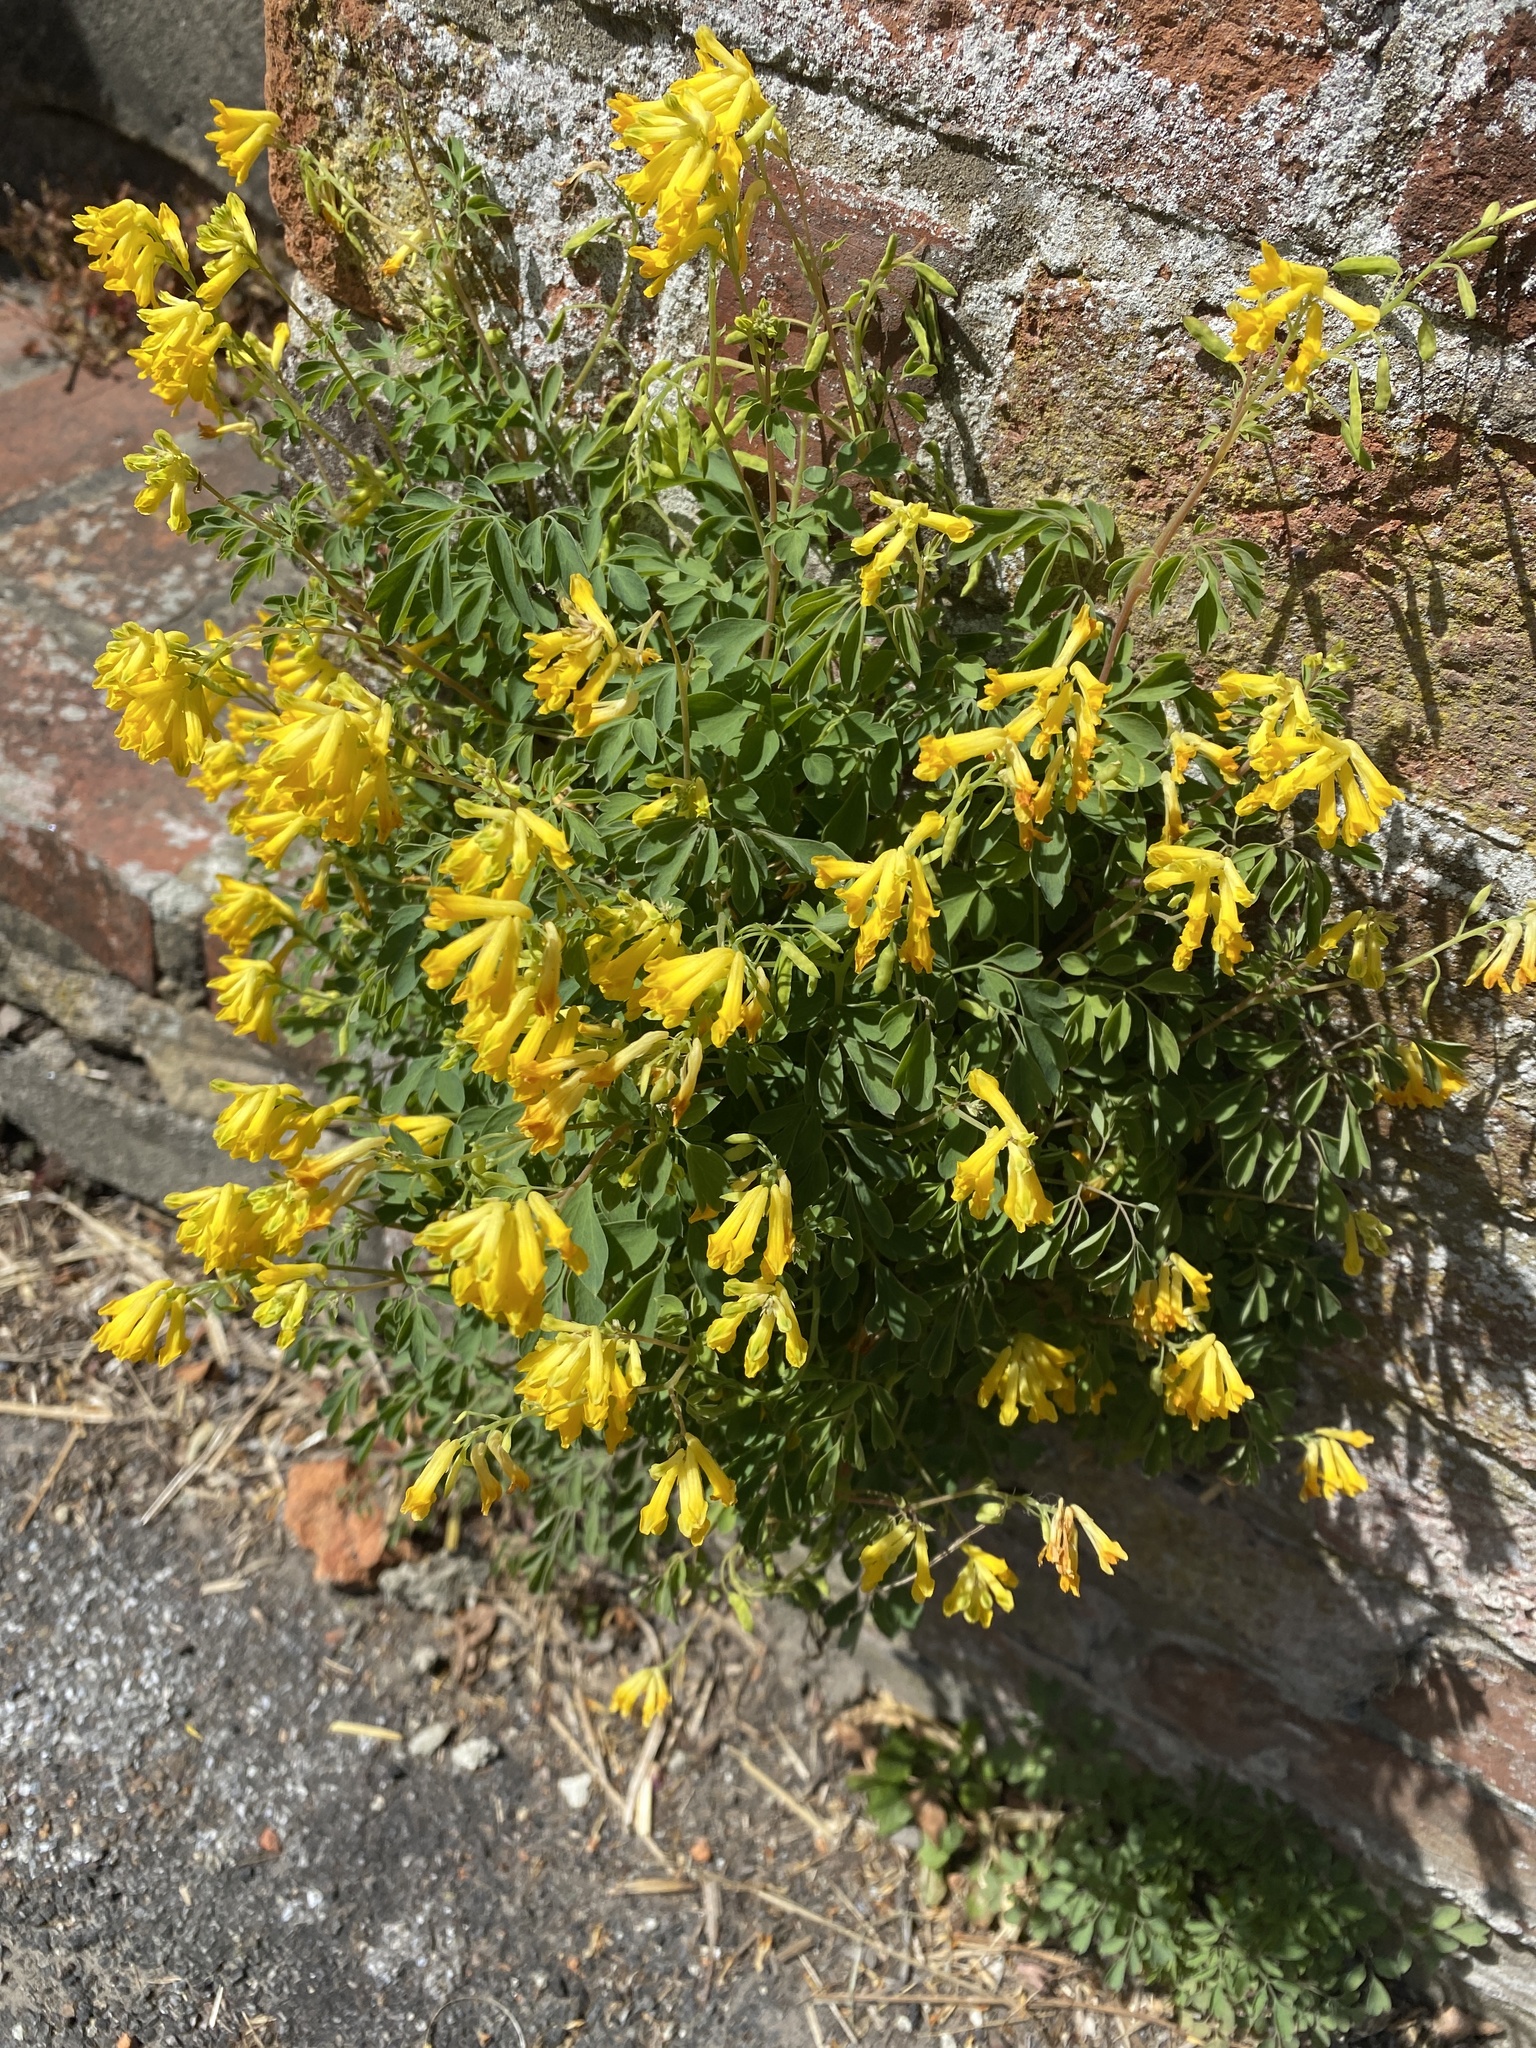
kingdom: Plantae
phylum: Tracheophyta
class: Magnoliopsida
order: Ranunculales
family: Papaveraceae
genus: Pseudofumaria
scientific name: Pseudofumaria lutea
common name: Yellow corydalis
